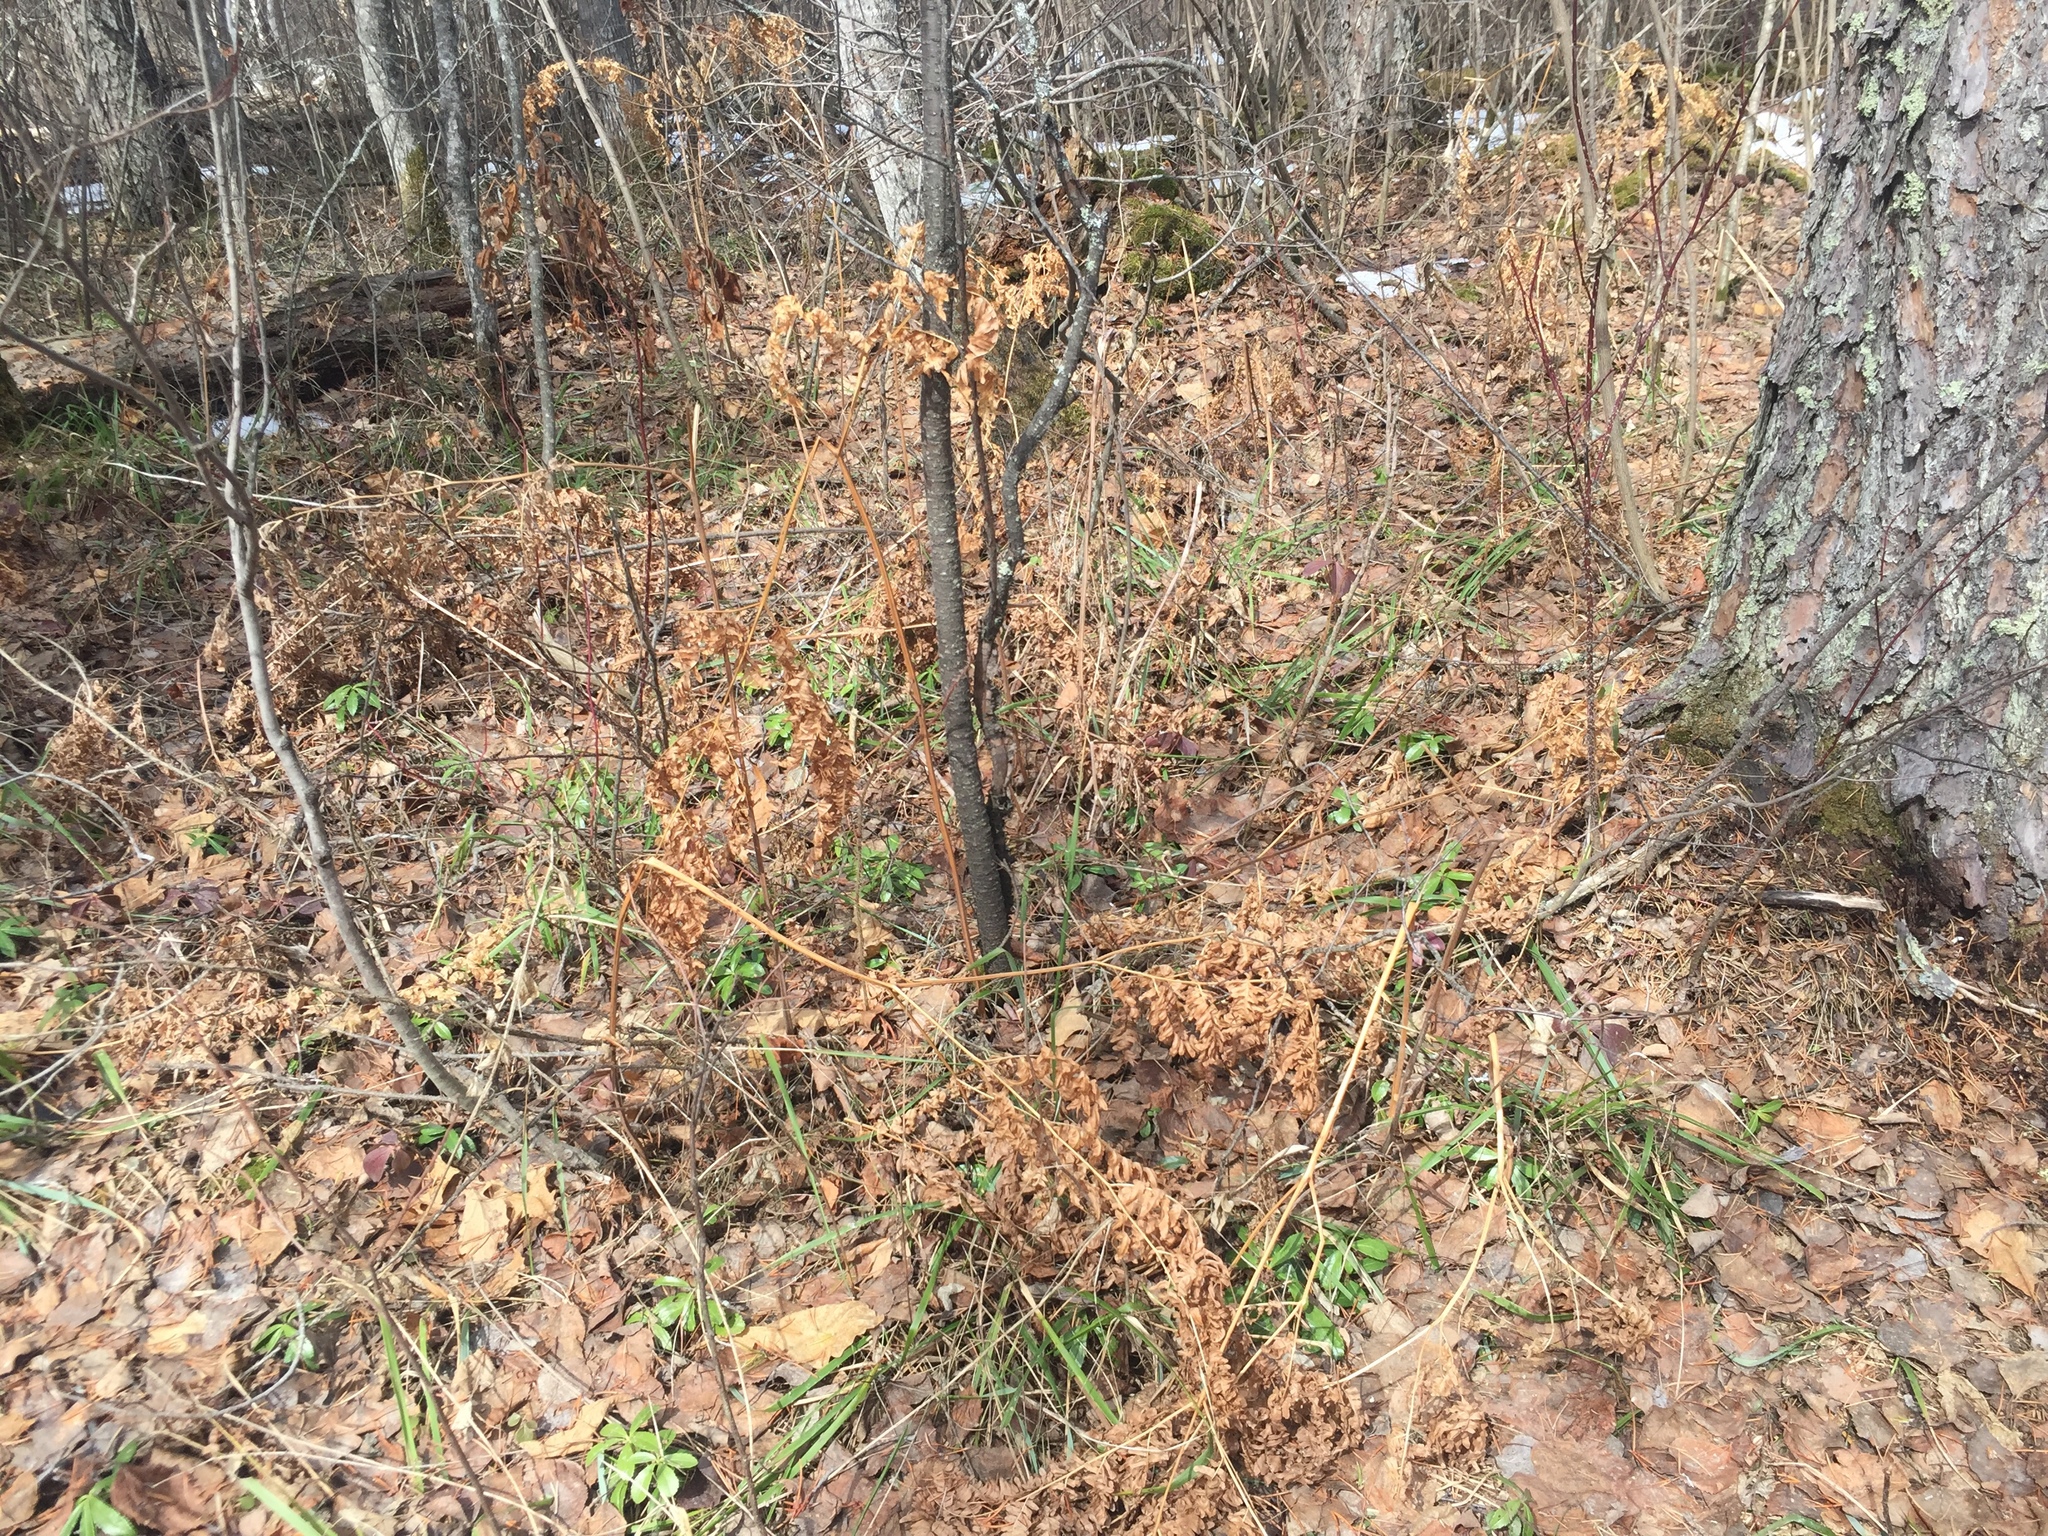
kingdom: Plantae
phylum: Tracheophyta
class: Polypodiopsida
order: Polypodiales
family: Dennstaedtiaceae
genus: Pteridium
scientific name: Pteridium aquilinum
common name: Bracken
